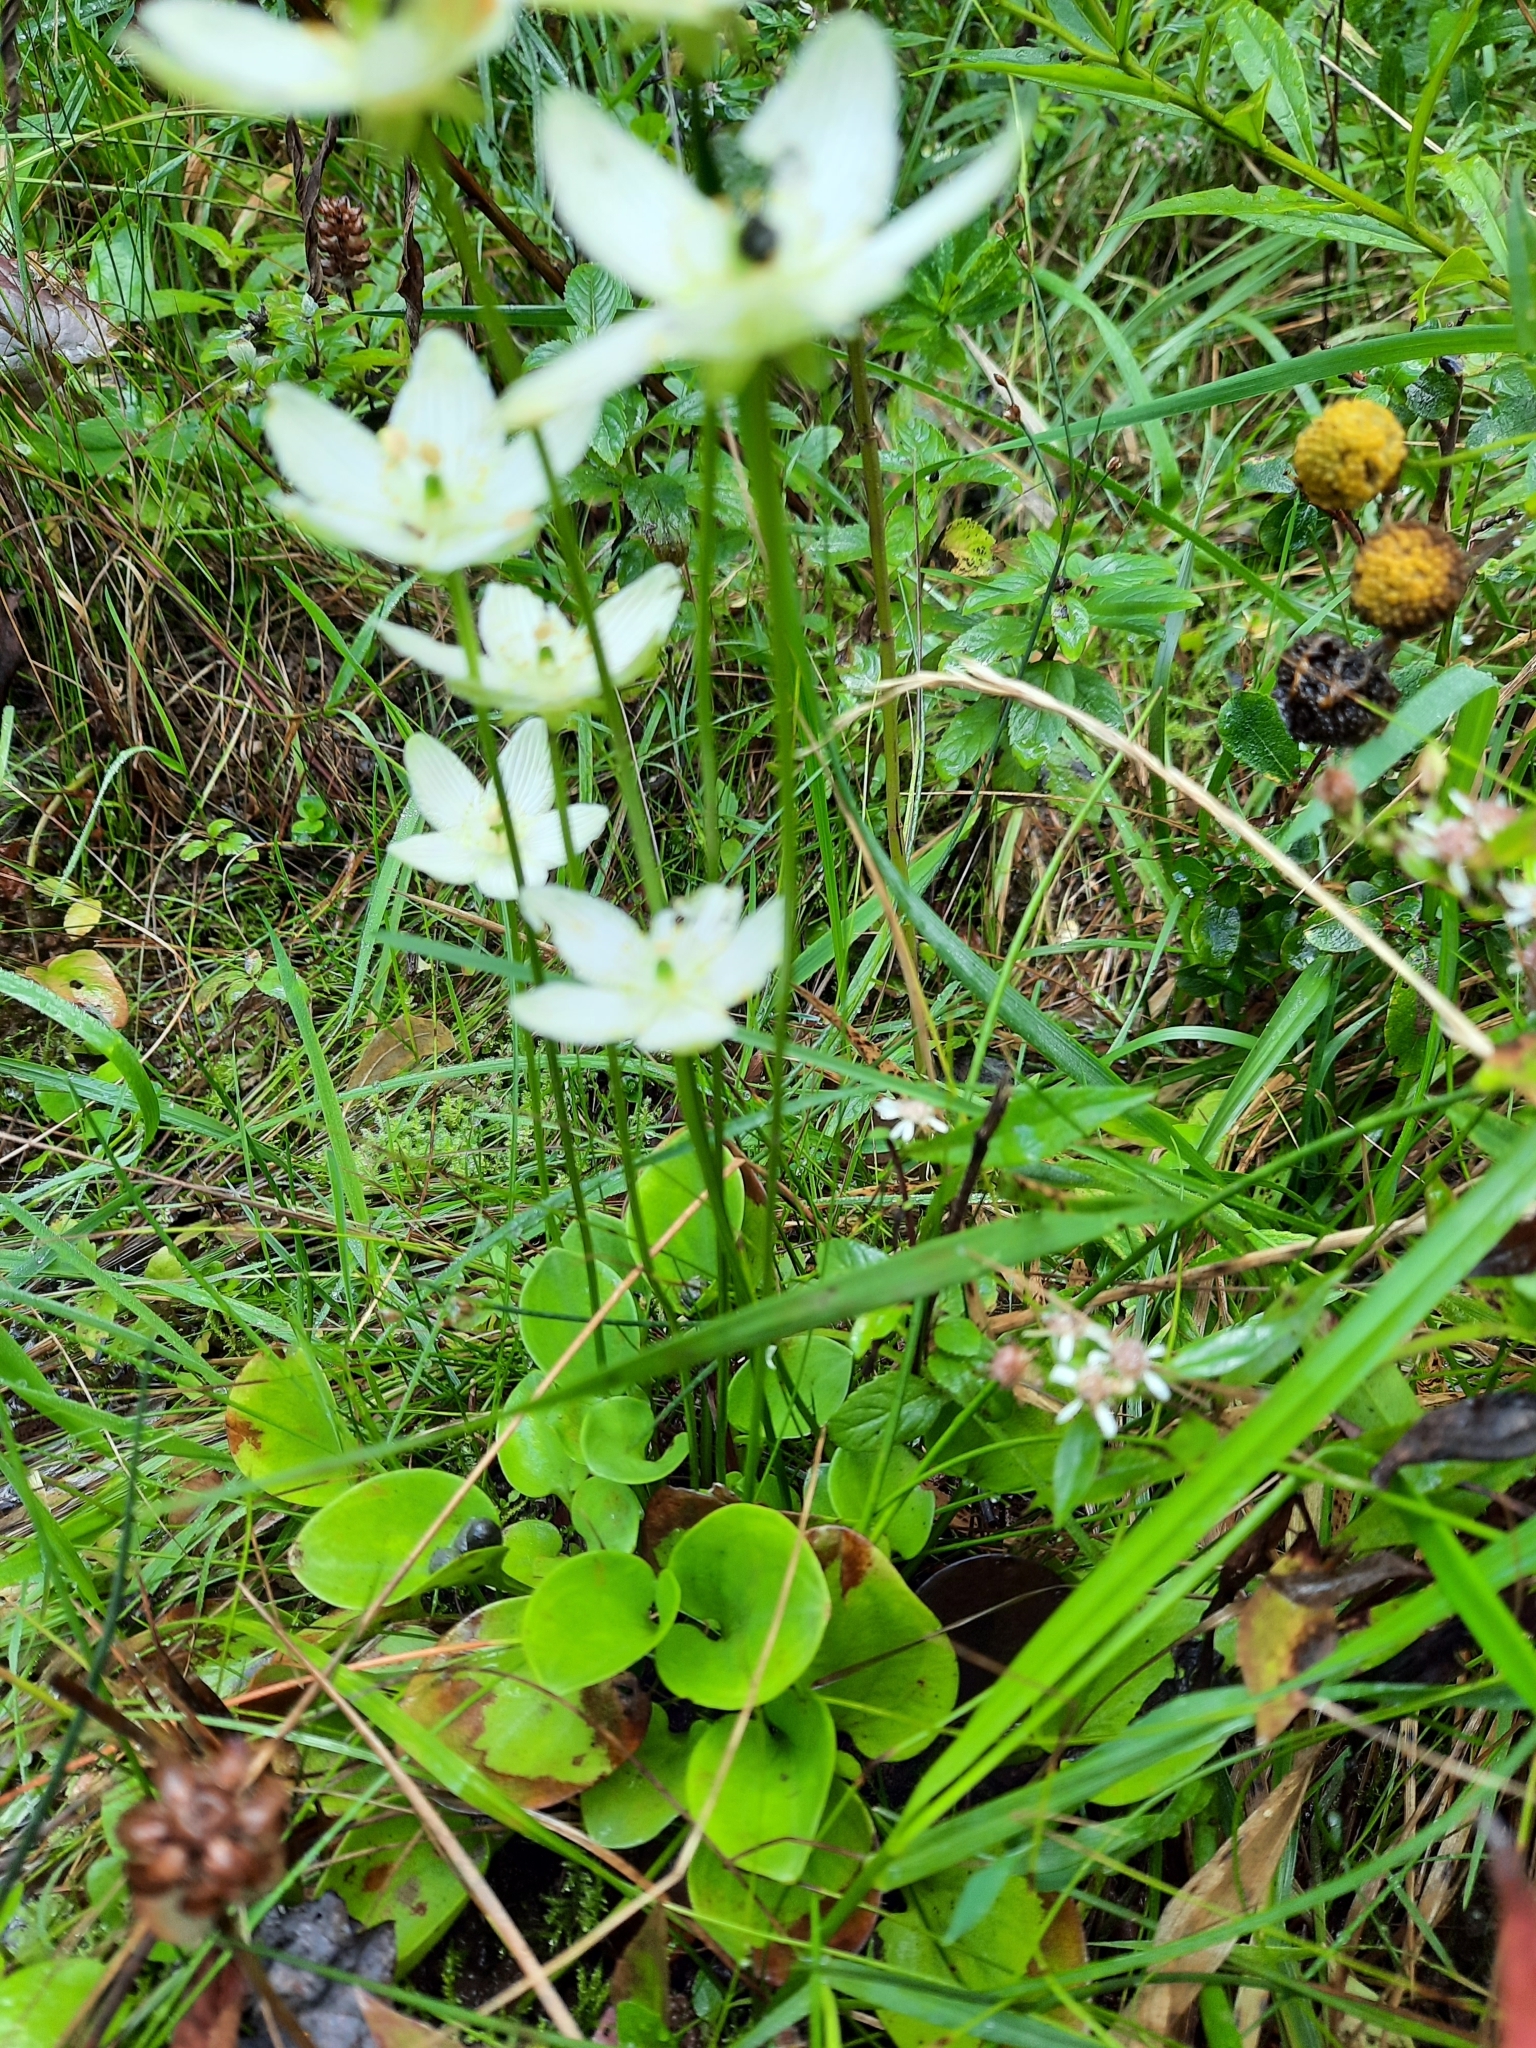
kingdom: Plantae
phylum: Tracheophyta
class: Magnoliopsida
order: Celastrales
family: Parnassiaceae
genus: Parnassia
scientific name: Parnassia glauca
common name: American grass-of-parnassus
